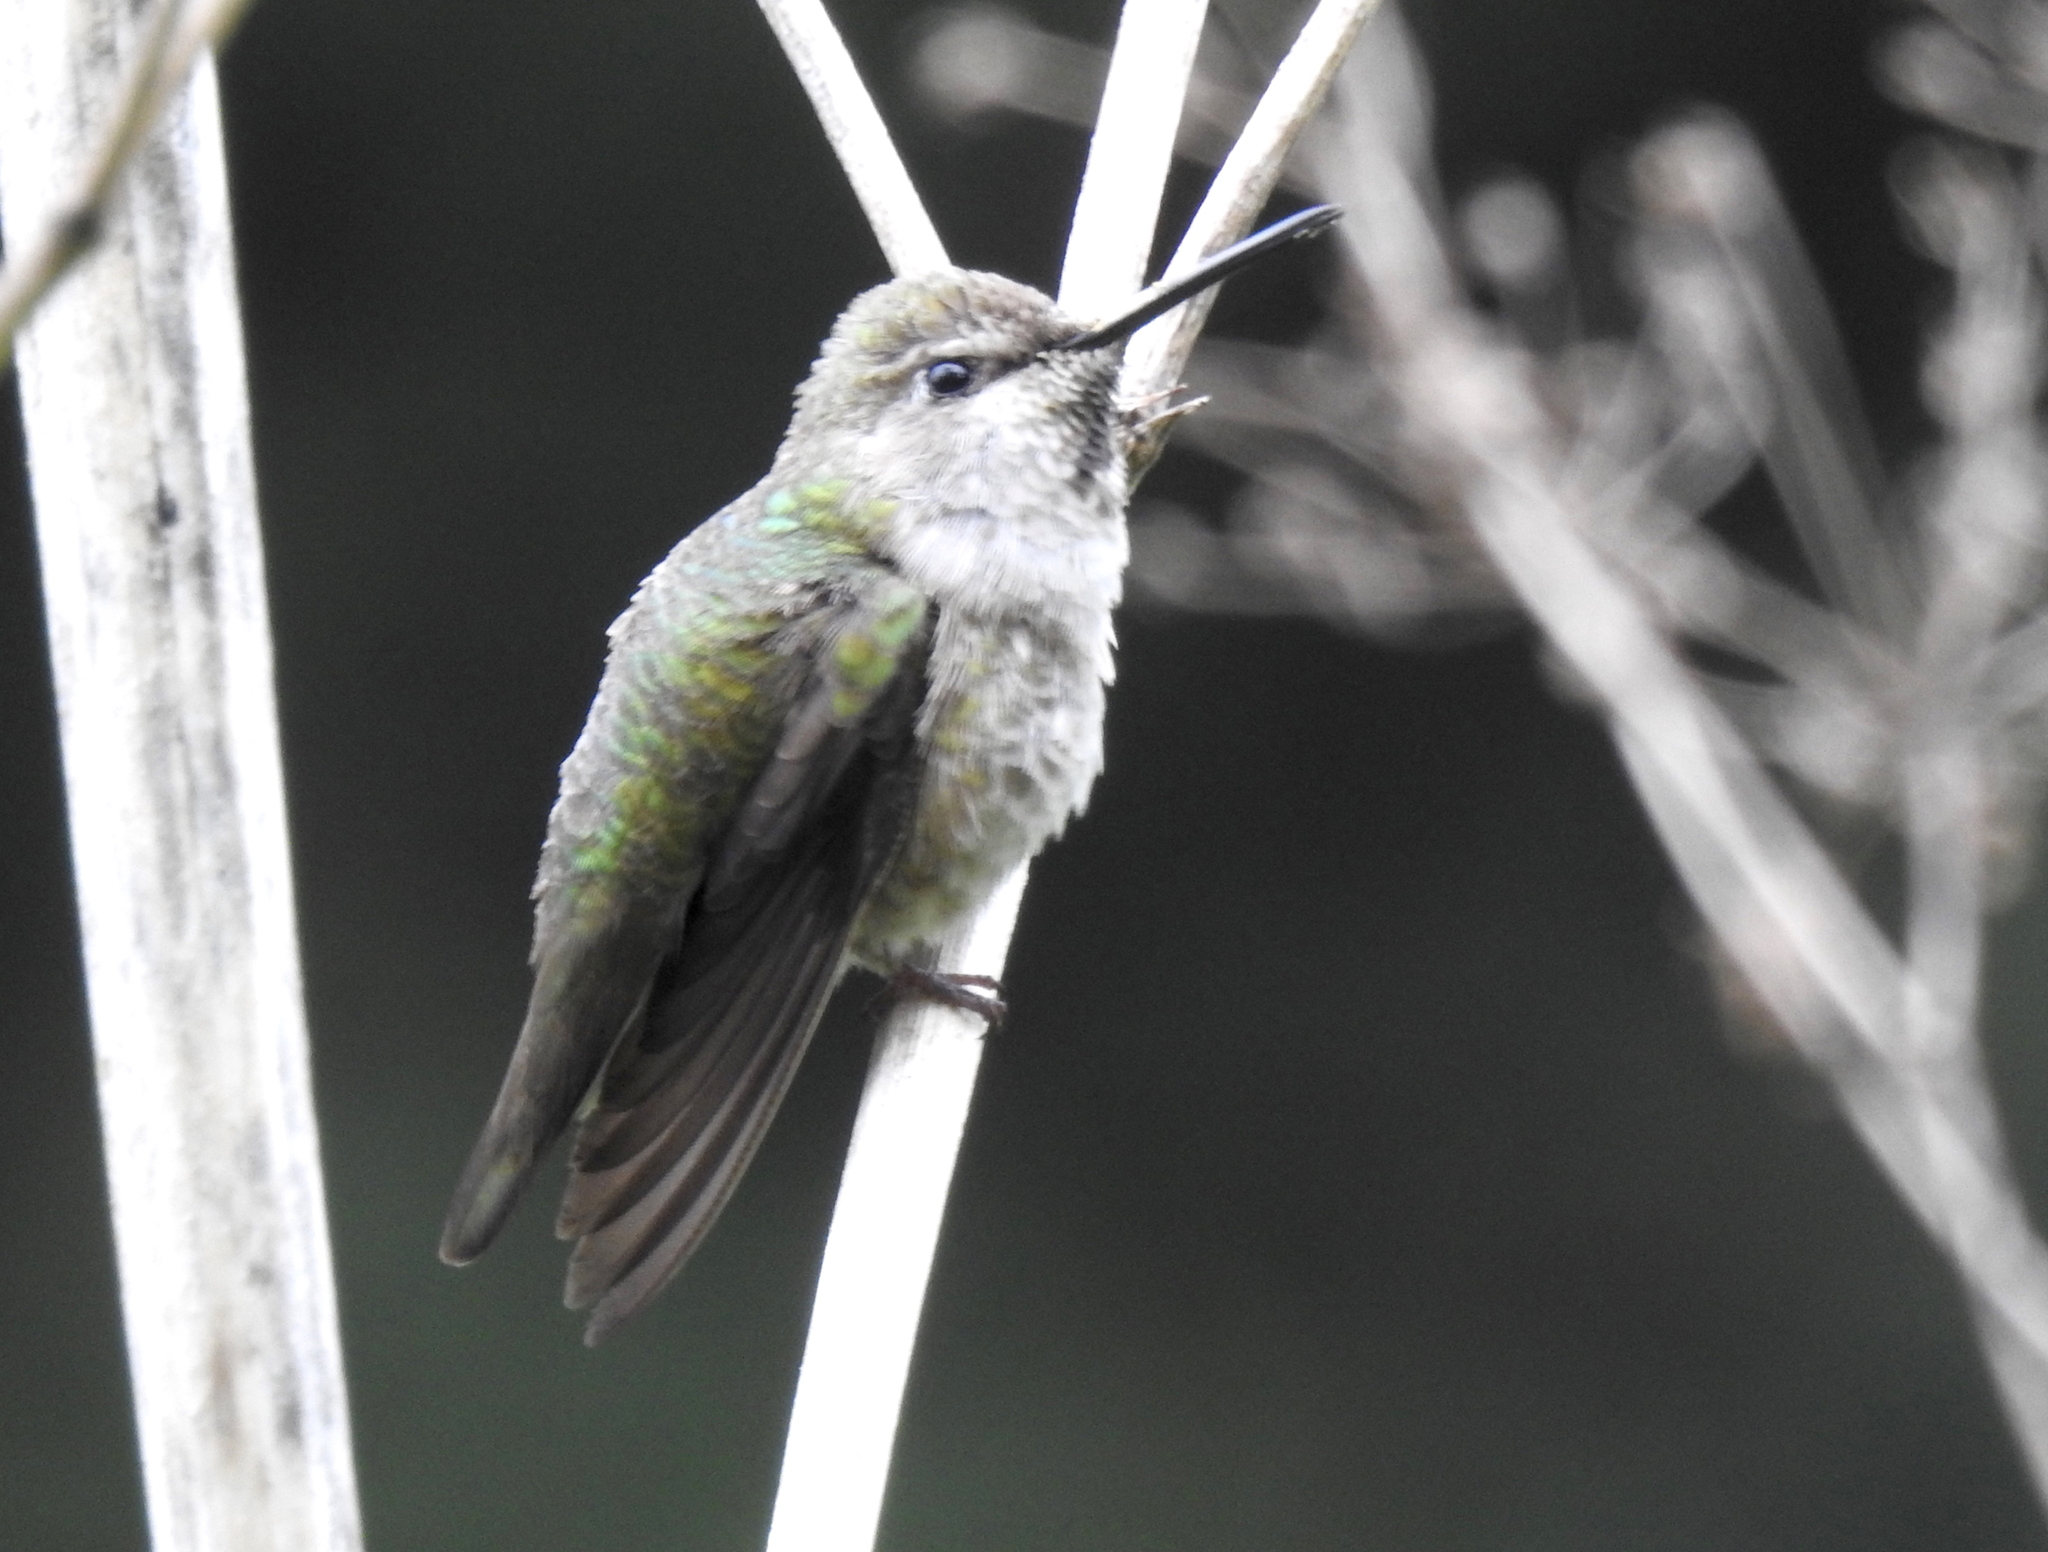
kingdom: Animalia
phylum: Chordata
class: Aves
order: Apodiformes
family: Trochilidae
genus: Calypte
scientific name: Calypte anna
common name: Anna's hummingbird
